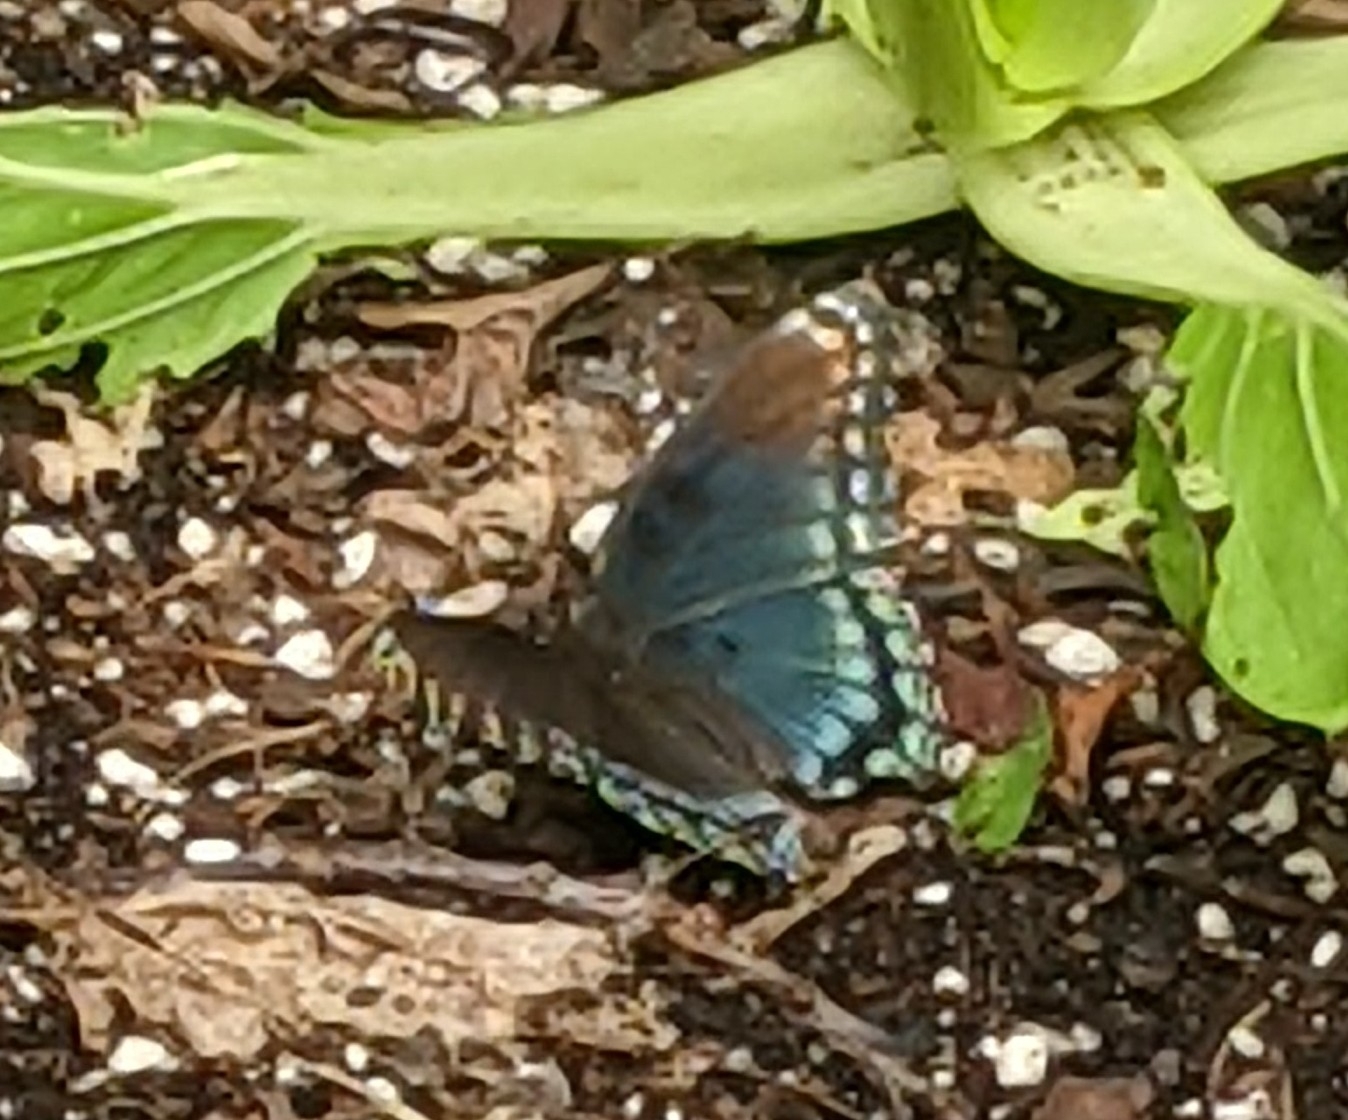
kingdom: Animalia
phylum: Arthropoda
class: Insecta
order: Lepidoptera
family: Nymphalidae
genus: Limenitis
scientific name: Limenitis arthemis
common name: Red-spotted admiral
